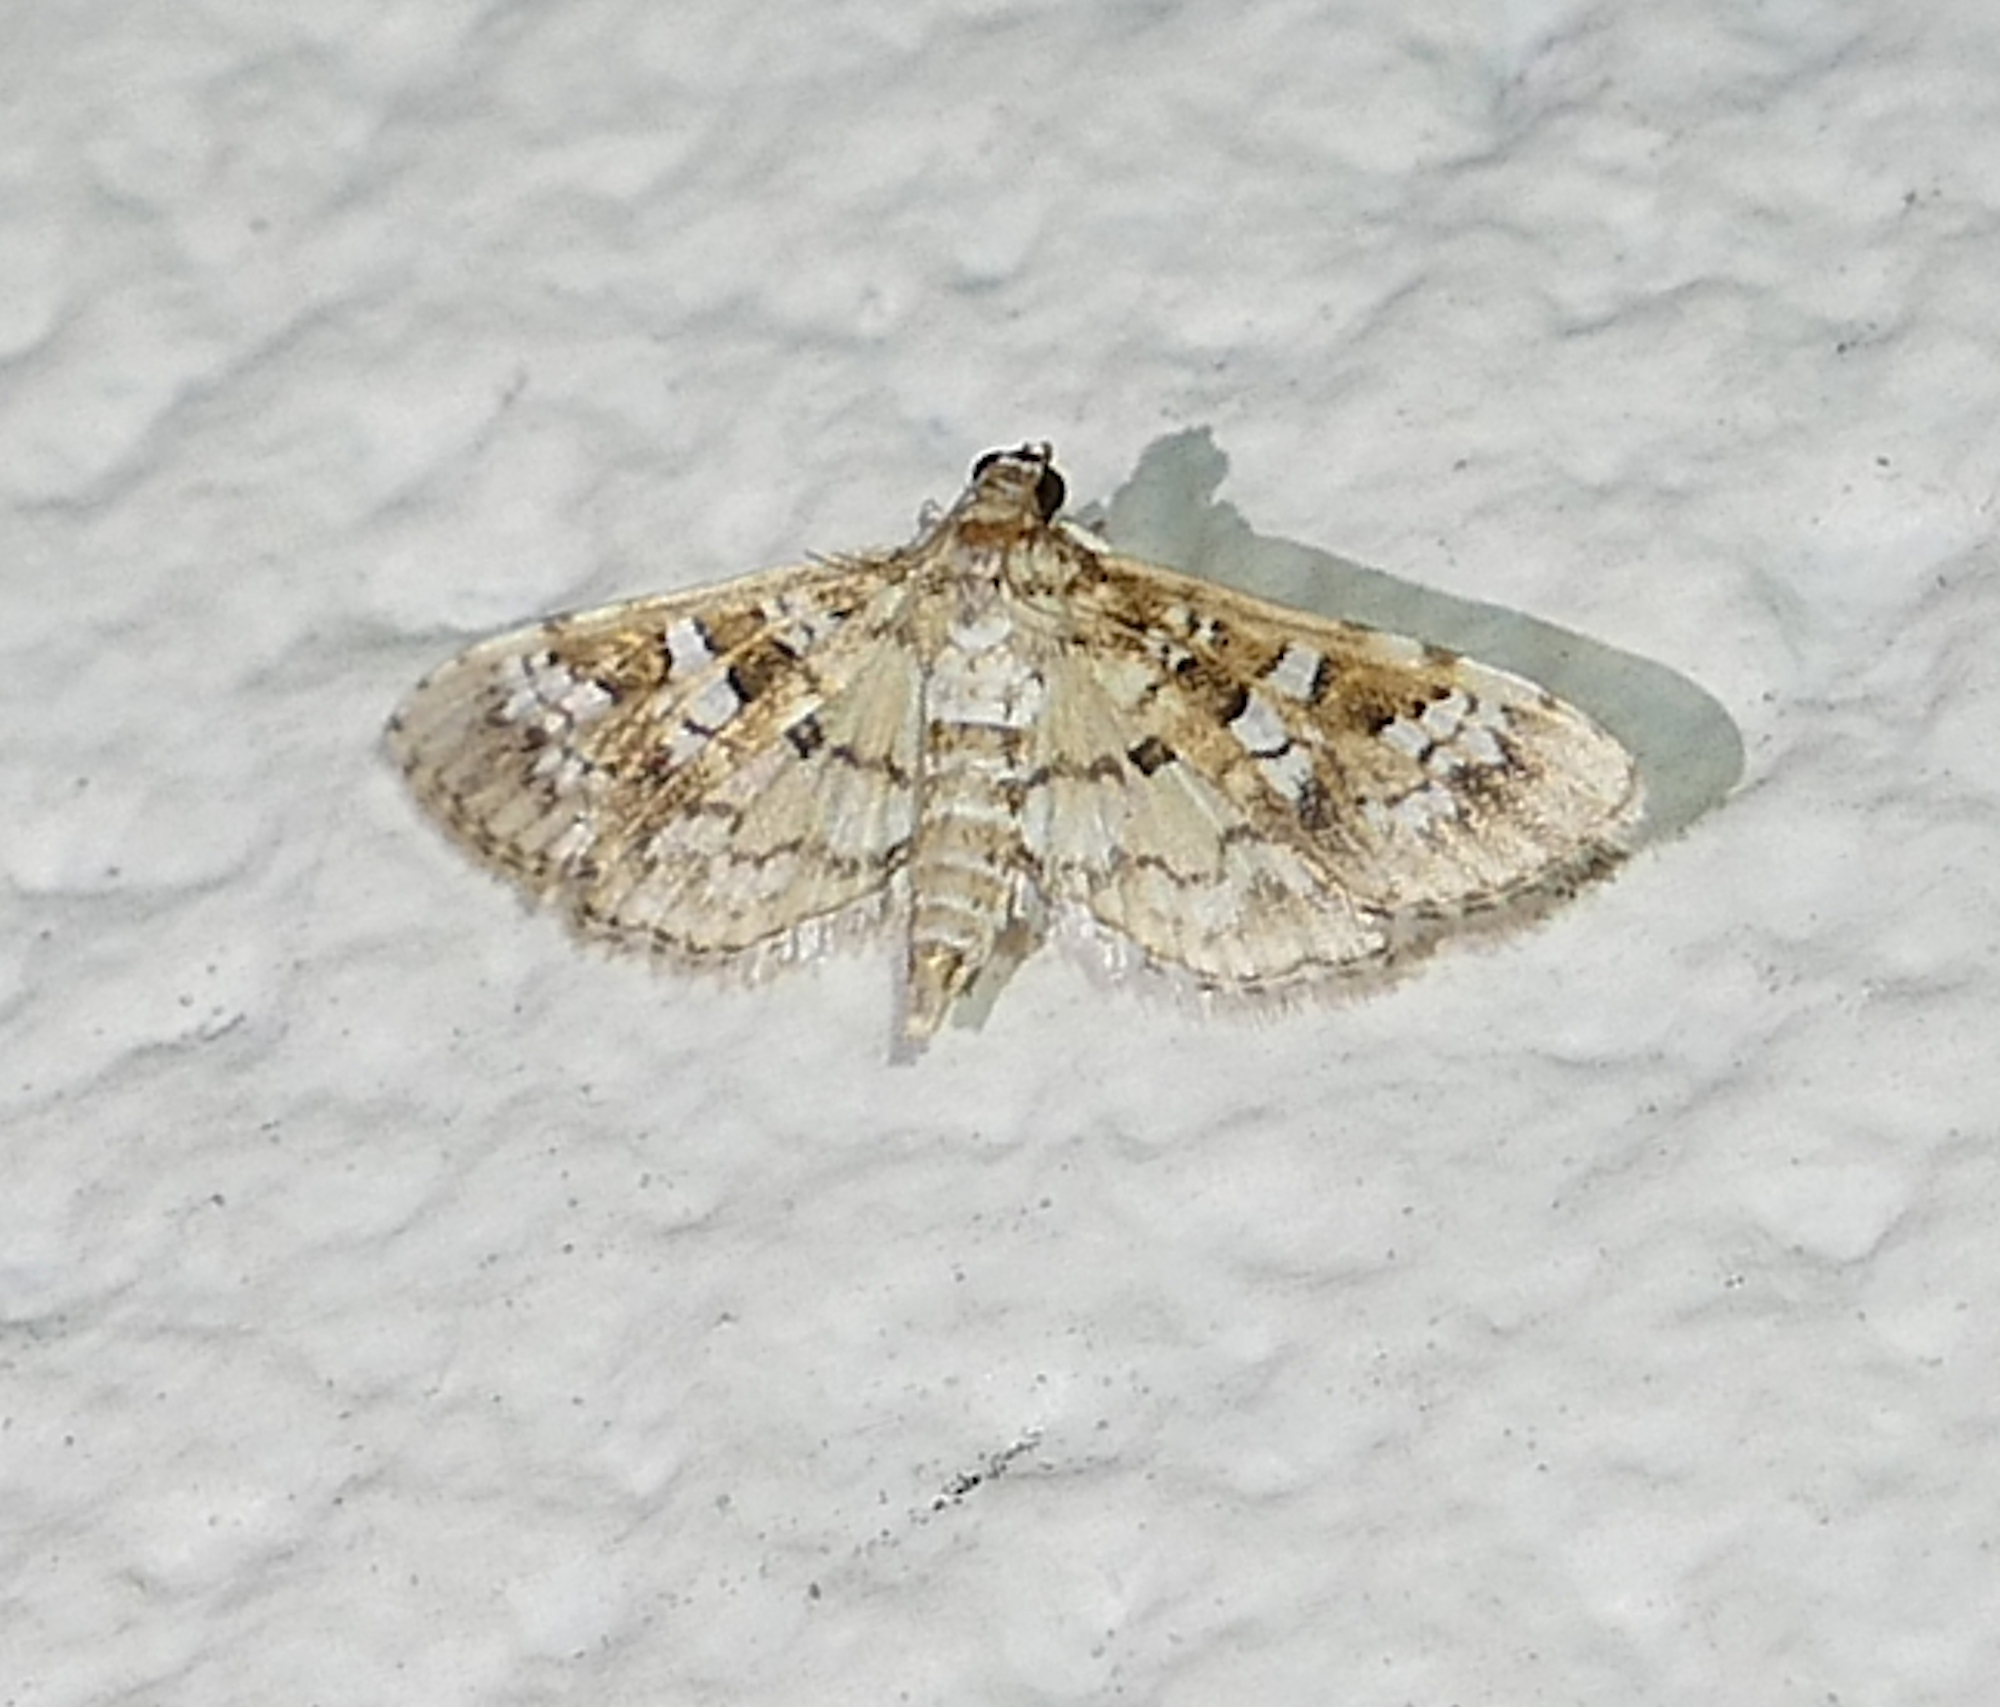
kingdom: Animalia
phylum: Arthropoda
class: Insecta
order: Lepidoptera
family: Crambidae
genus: Samea
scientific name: Samea multiplicalis
